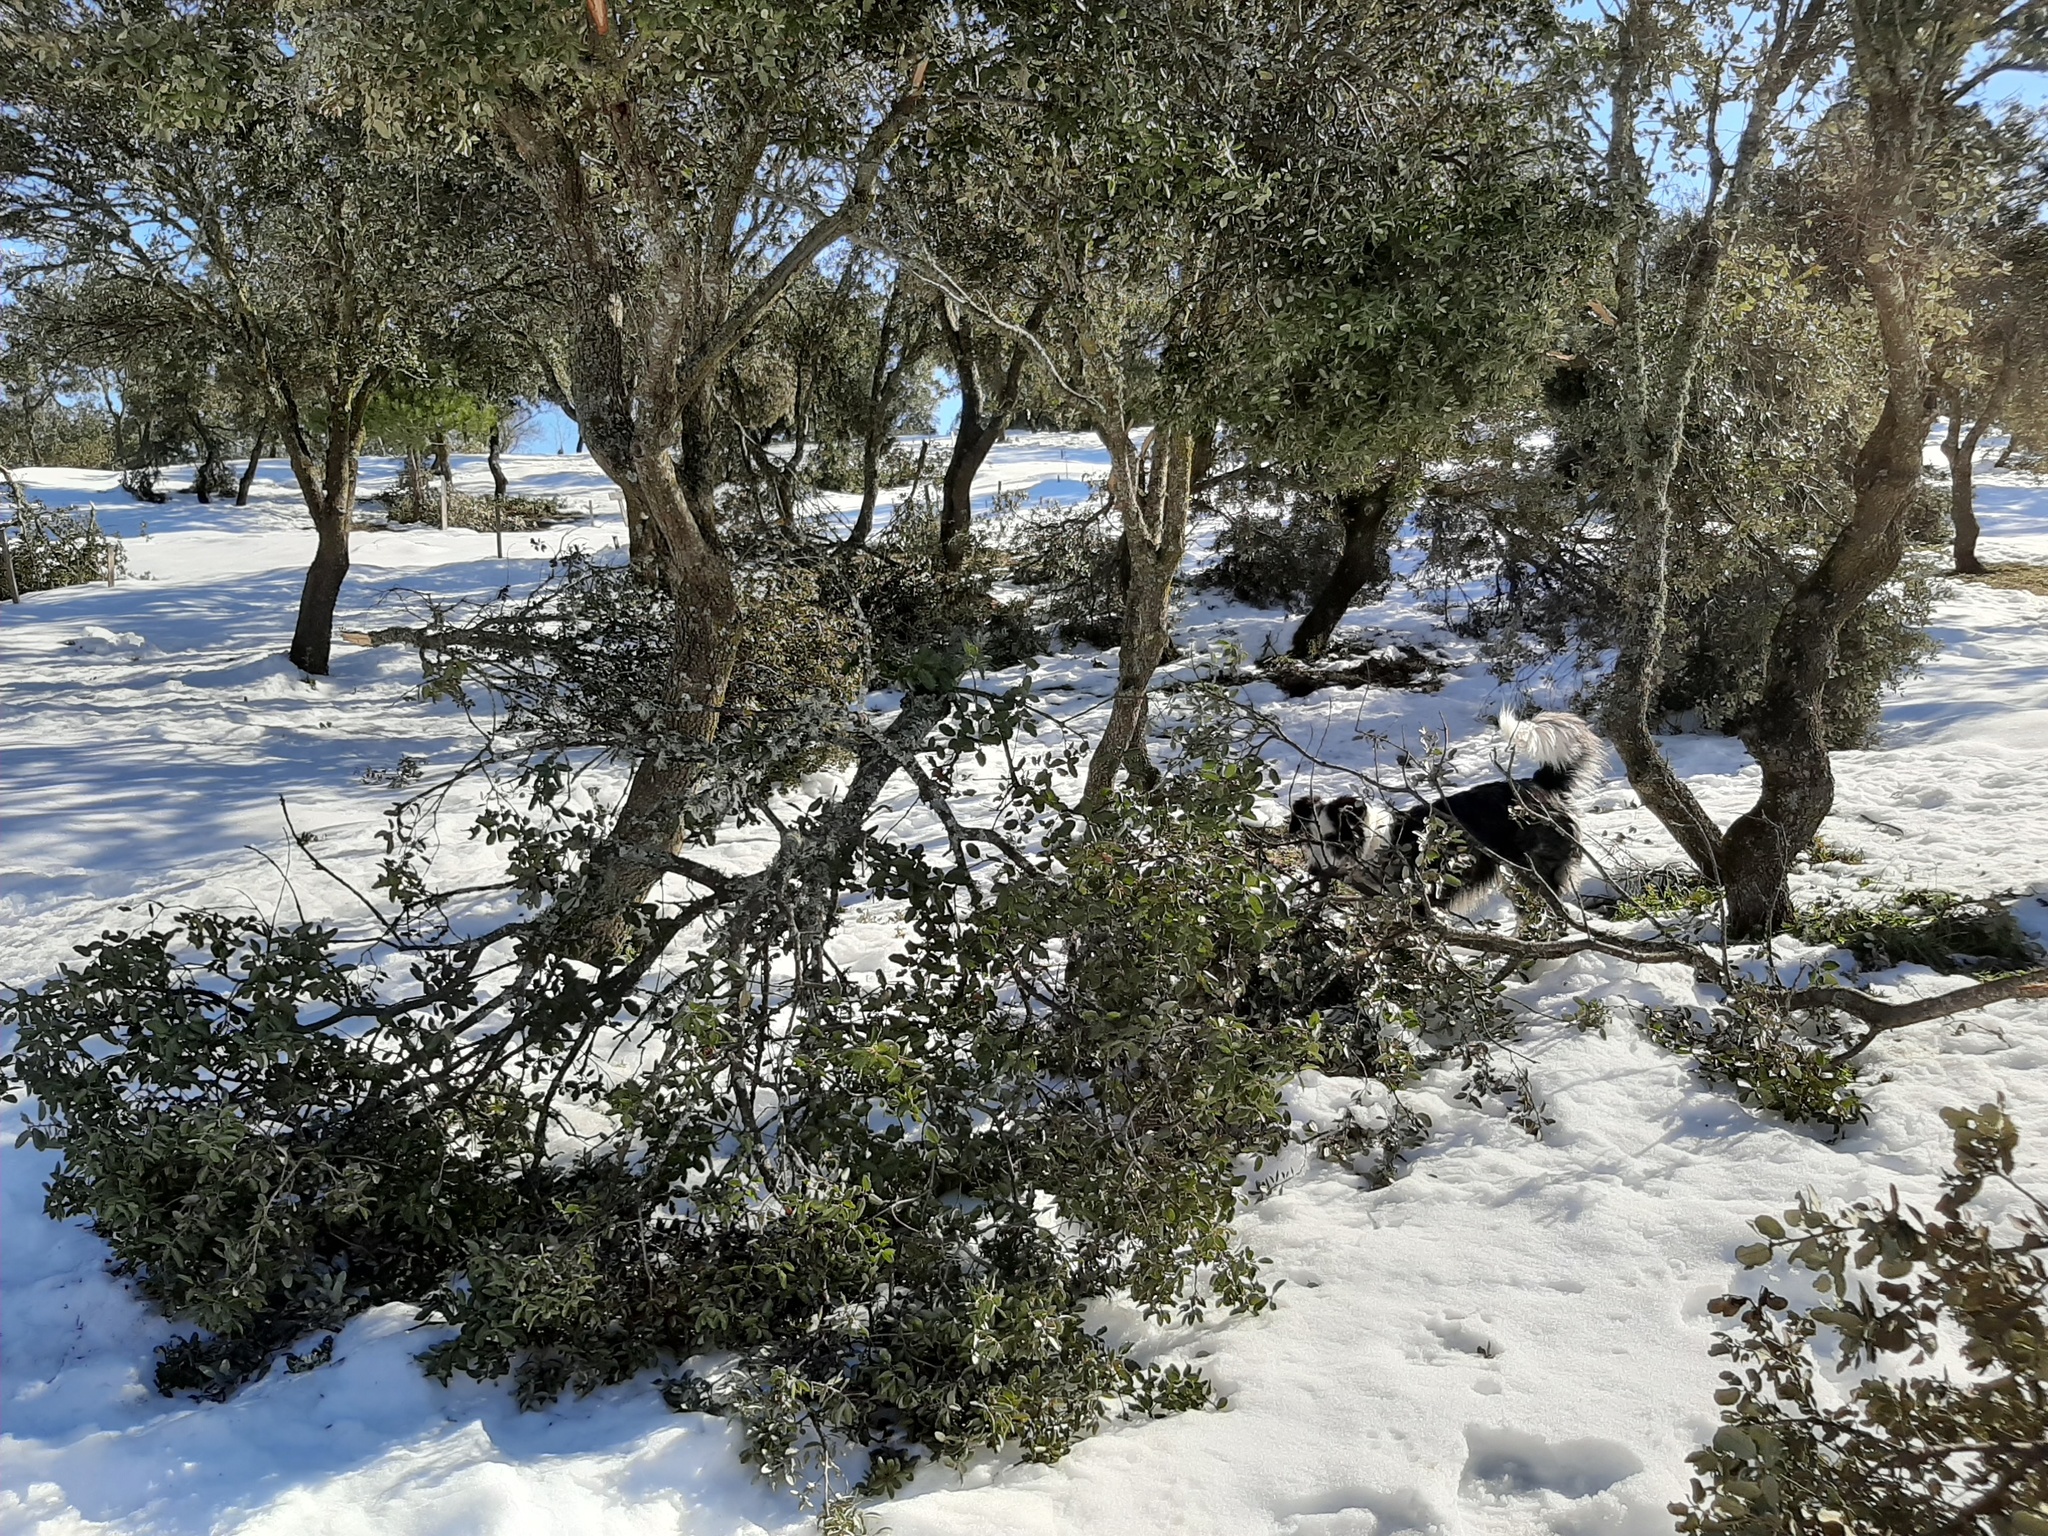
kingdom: Plantae
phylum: Tracheophyta
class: Magnoliopsida
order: Fagales
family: Fagaceae
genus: Quercus
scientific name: Quercus rotundifolia
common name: Holm oak
